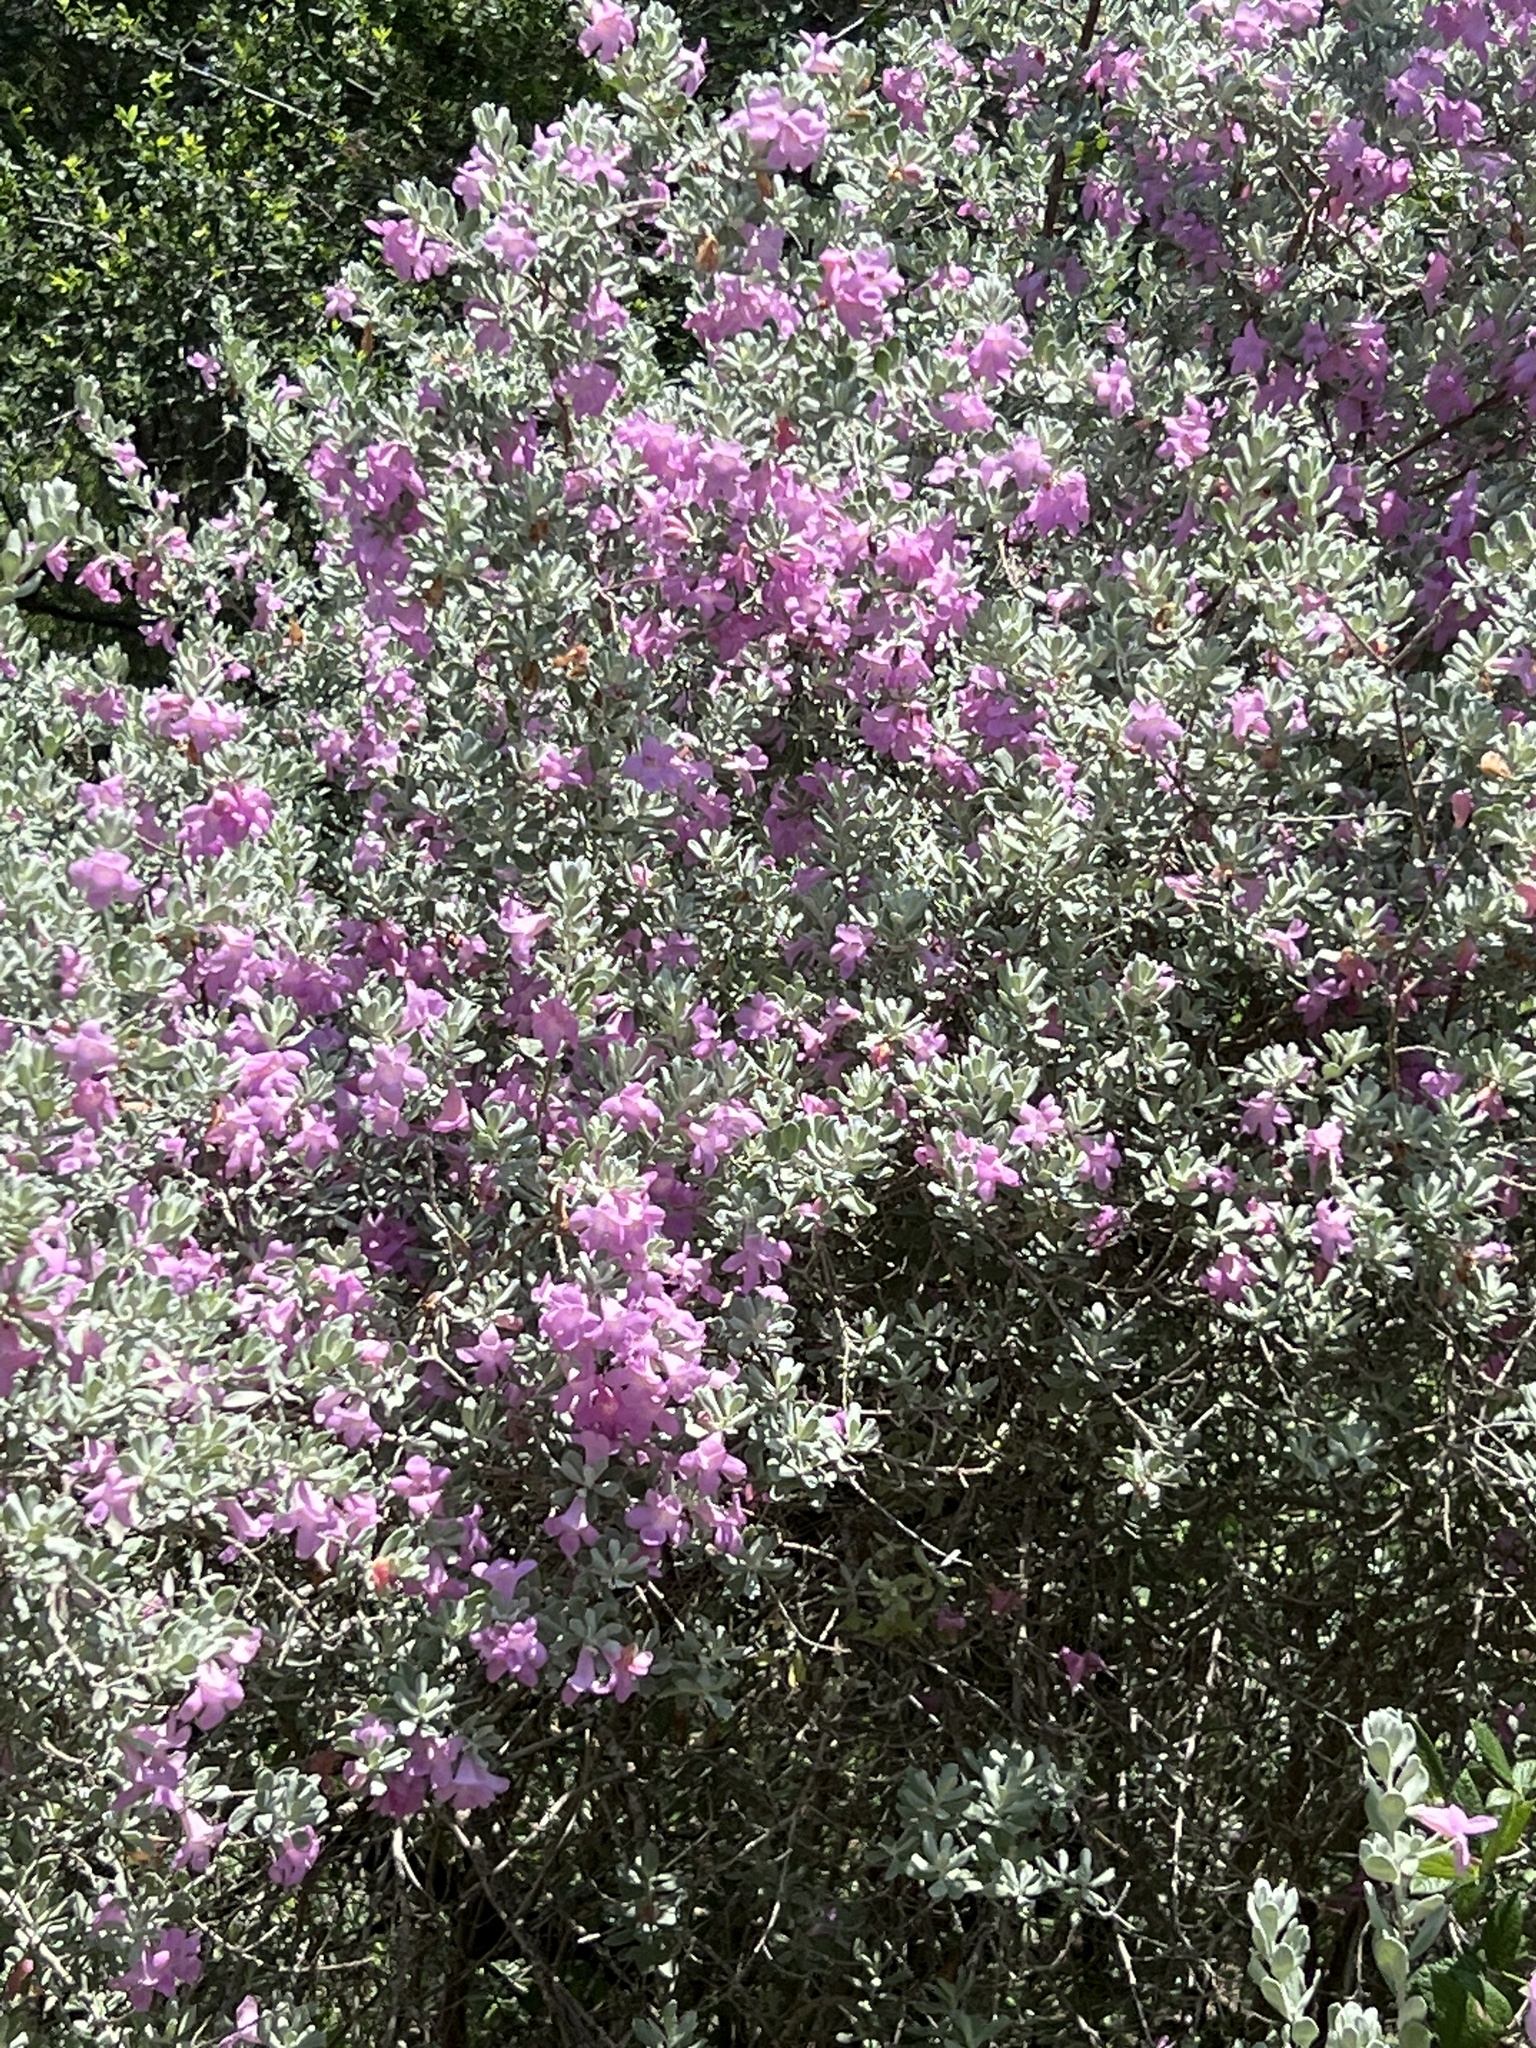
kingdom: Plantae
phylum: Tracheophyta
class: Magnoliopsida
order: Lamiales
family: Scrophulariaceae
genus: Leucophyllum
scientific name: Leucophyllum frutescens
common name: Texas silverleaf
